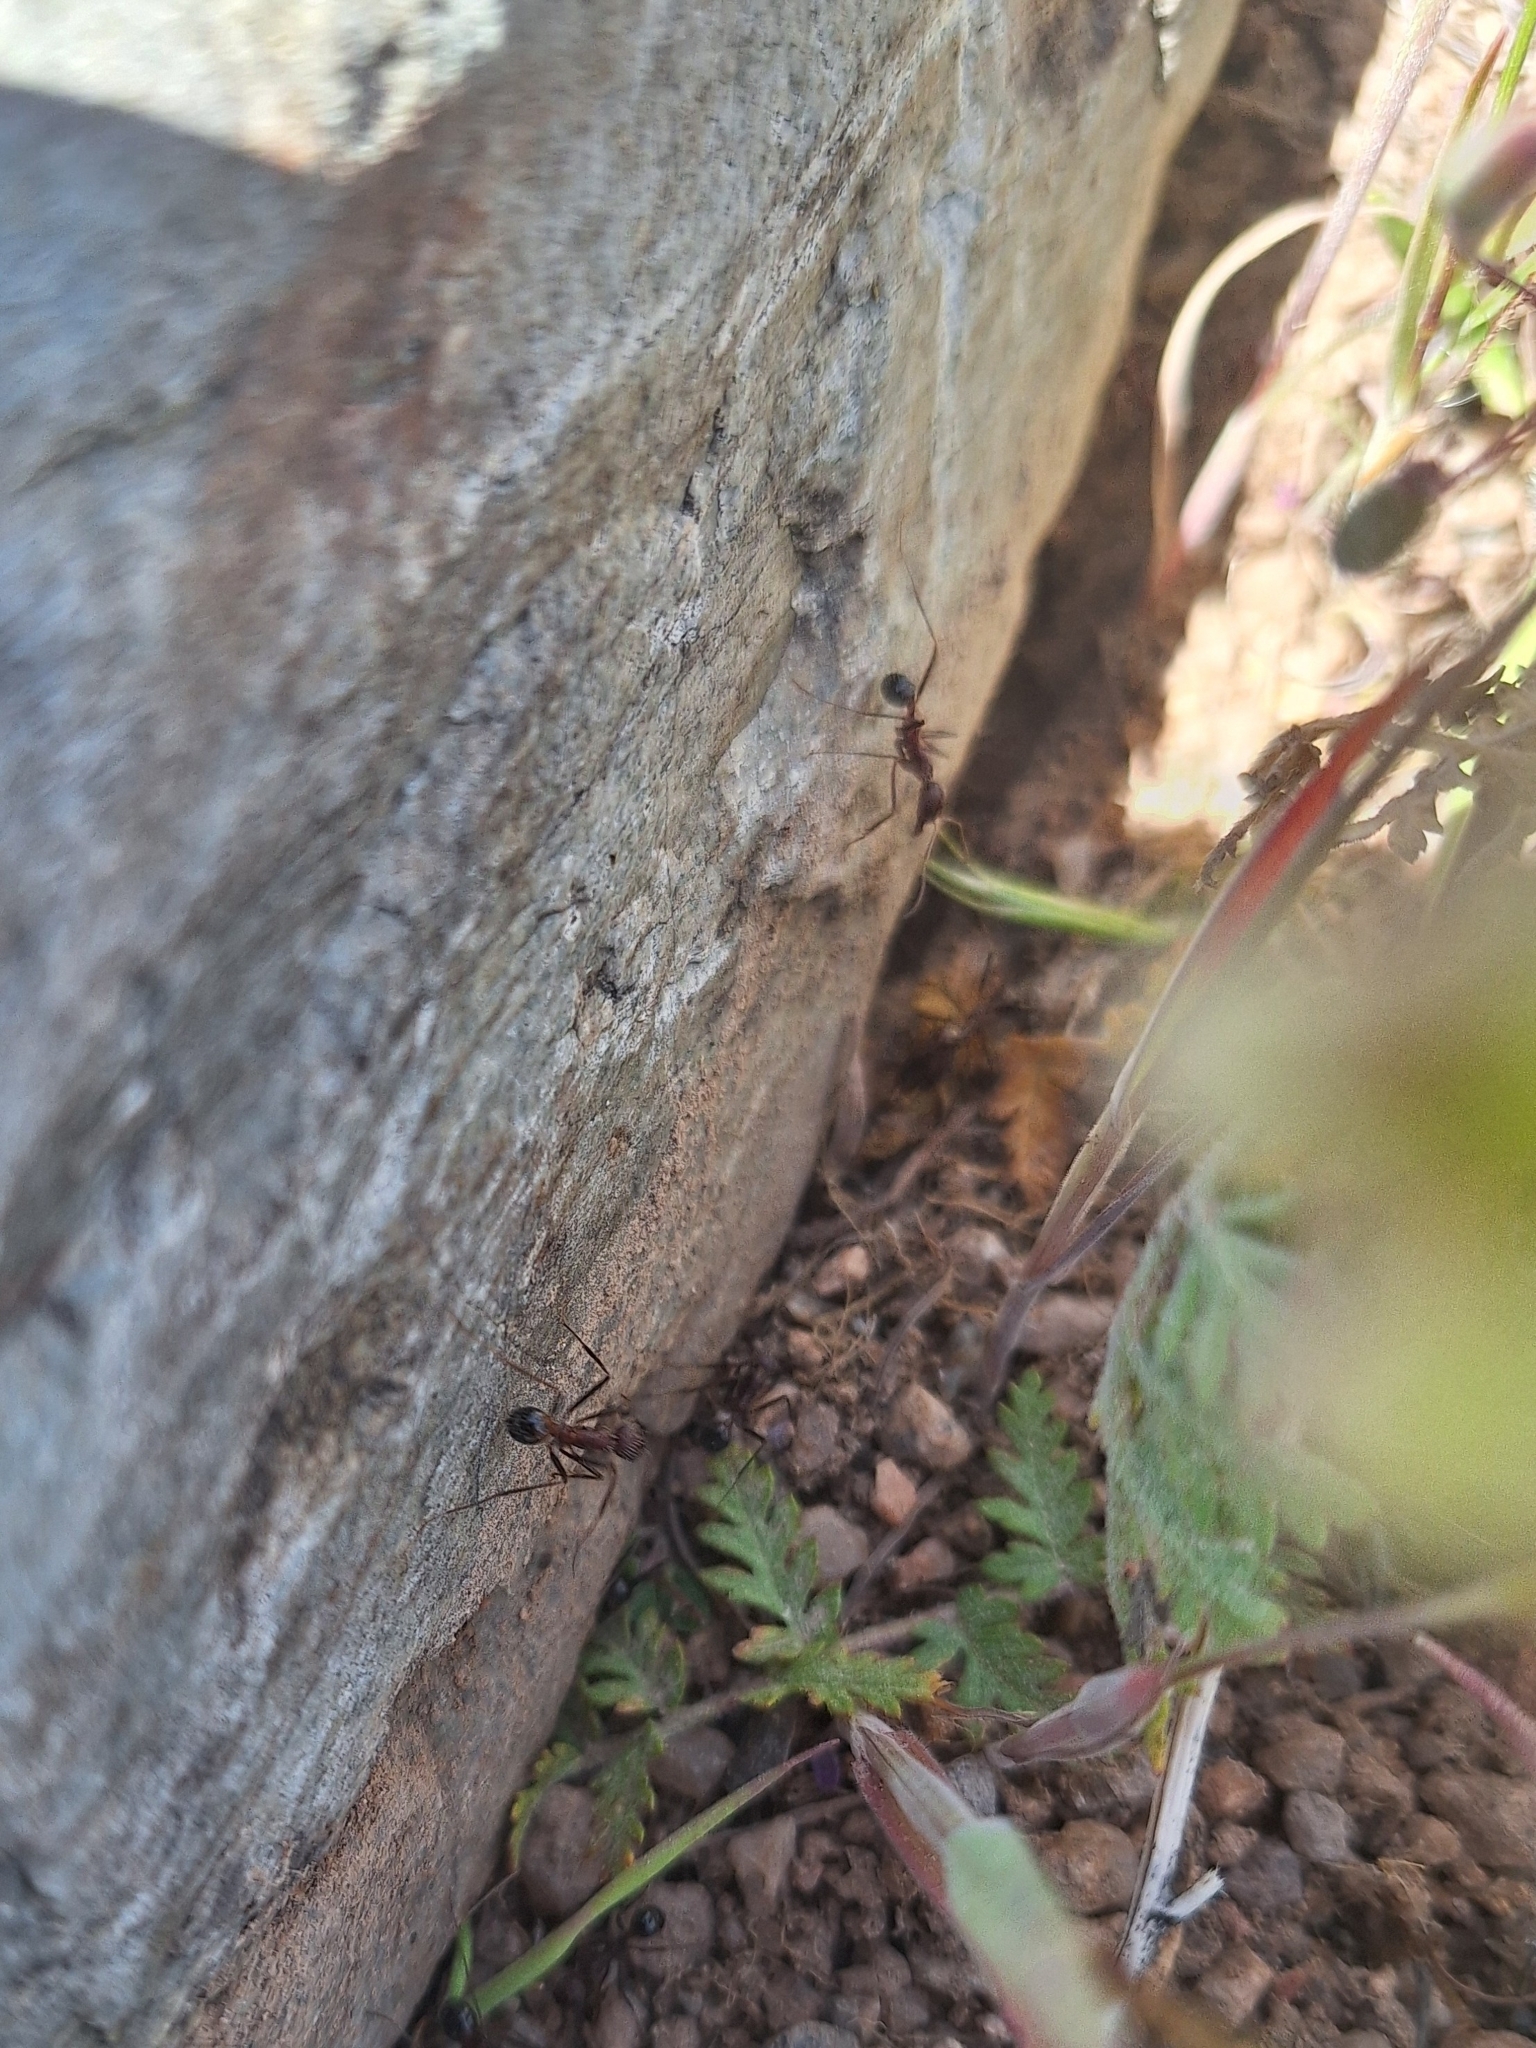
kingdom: Animalia
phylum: Arthropoda
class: Insecta
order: Hymenoptera
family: Formicidae
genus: Novomessor
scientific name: Novomessor albisetosa
